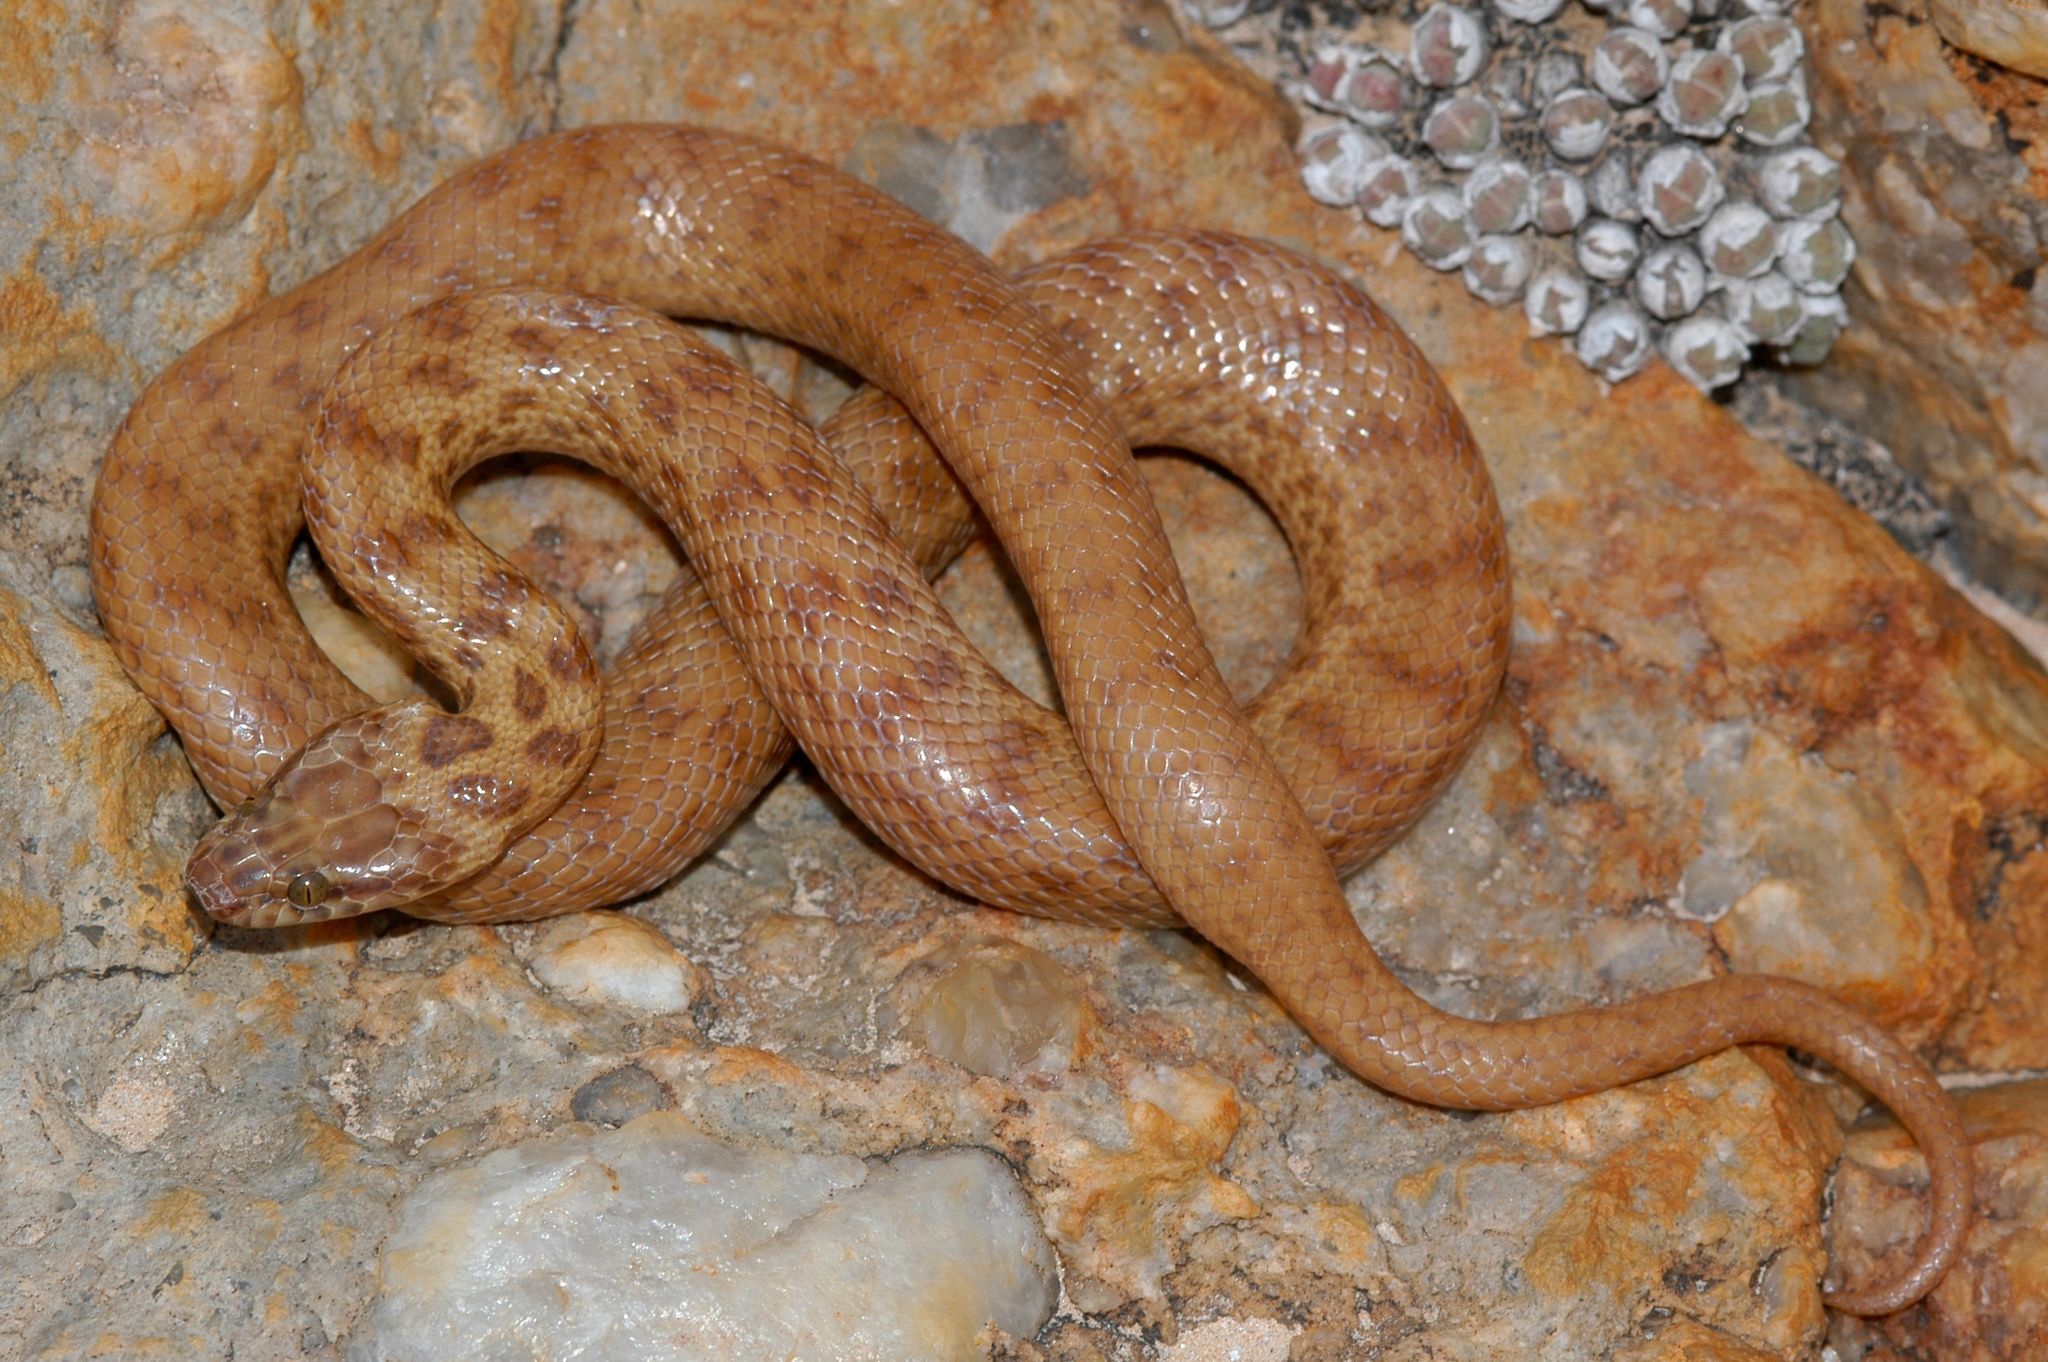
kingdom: Animalia
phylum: Chordata
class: Squamata
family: Lamprophiidae
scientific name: Lamprophiidae
